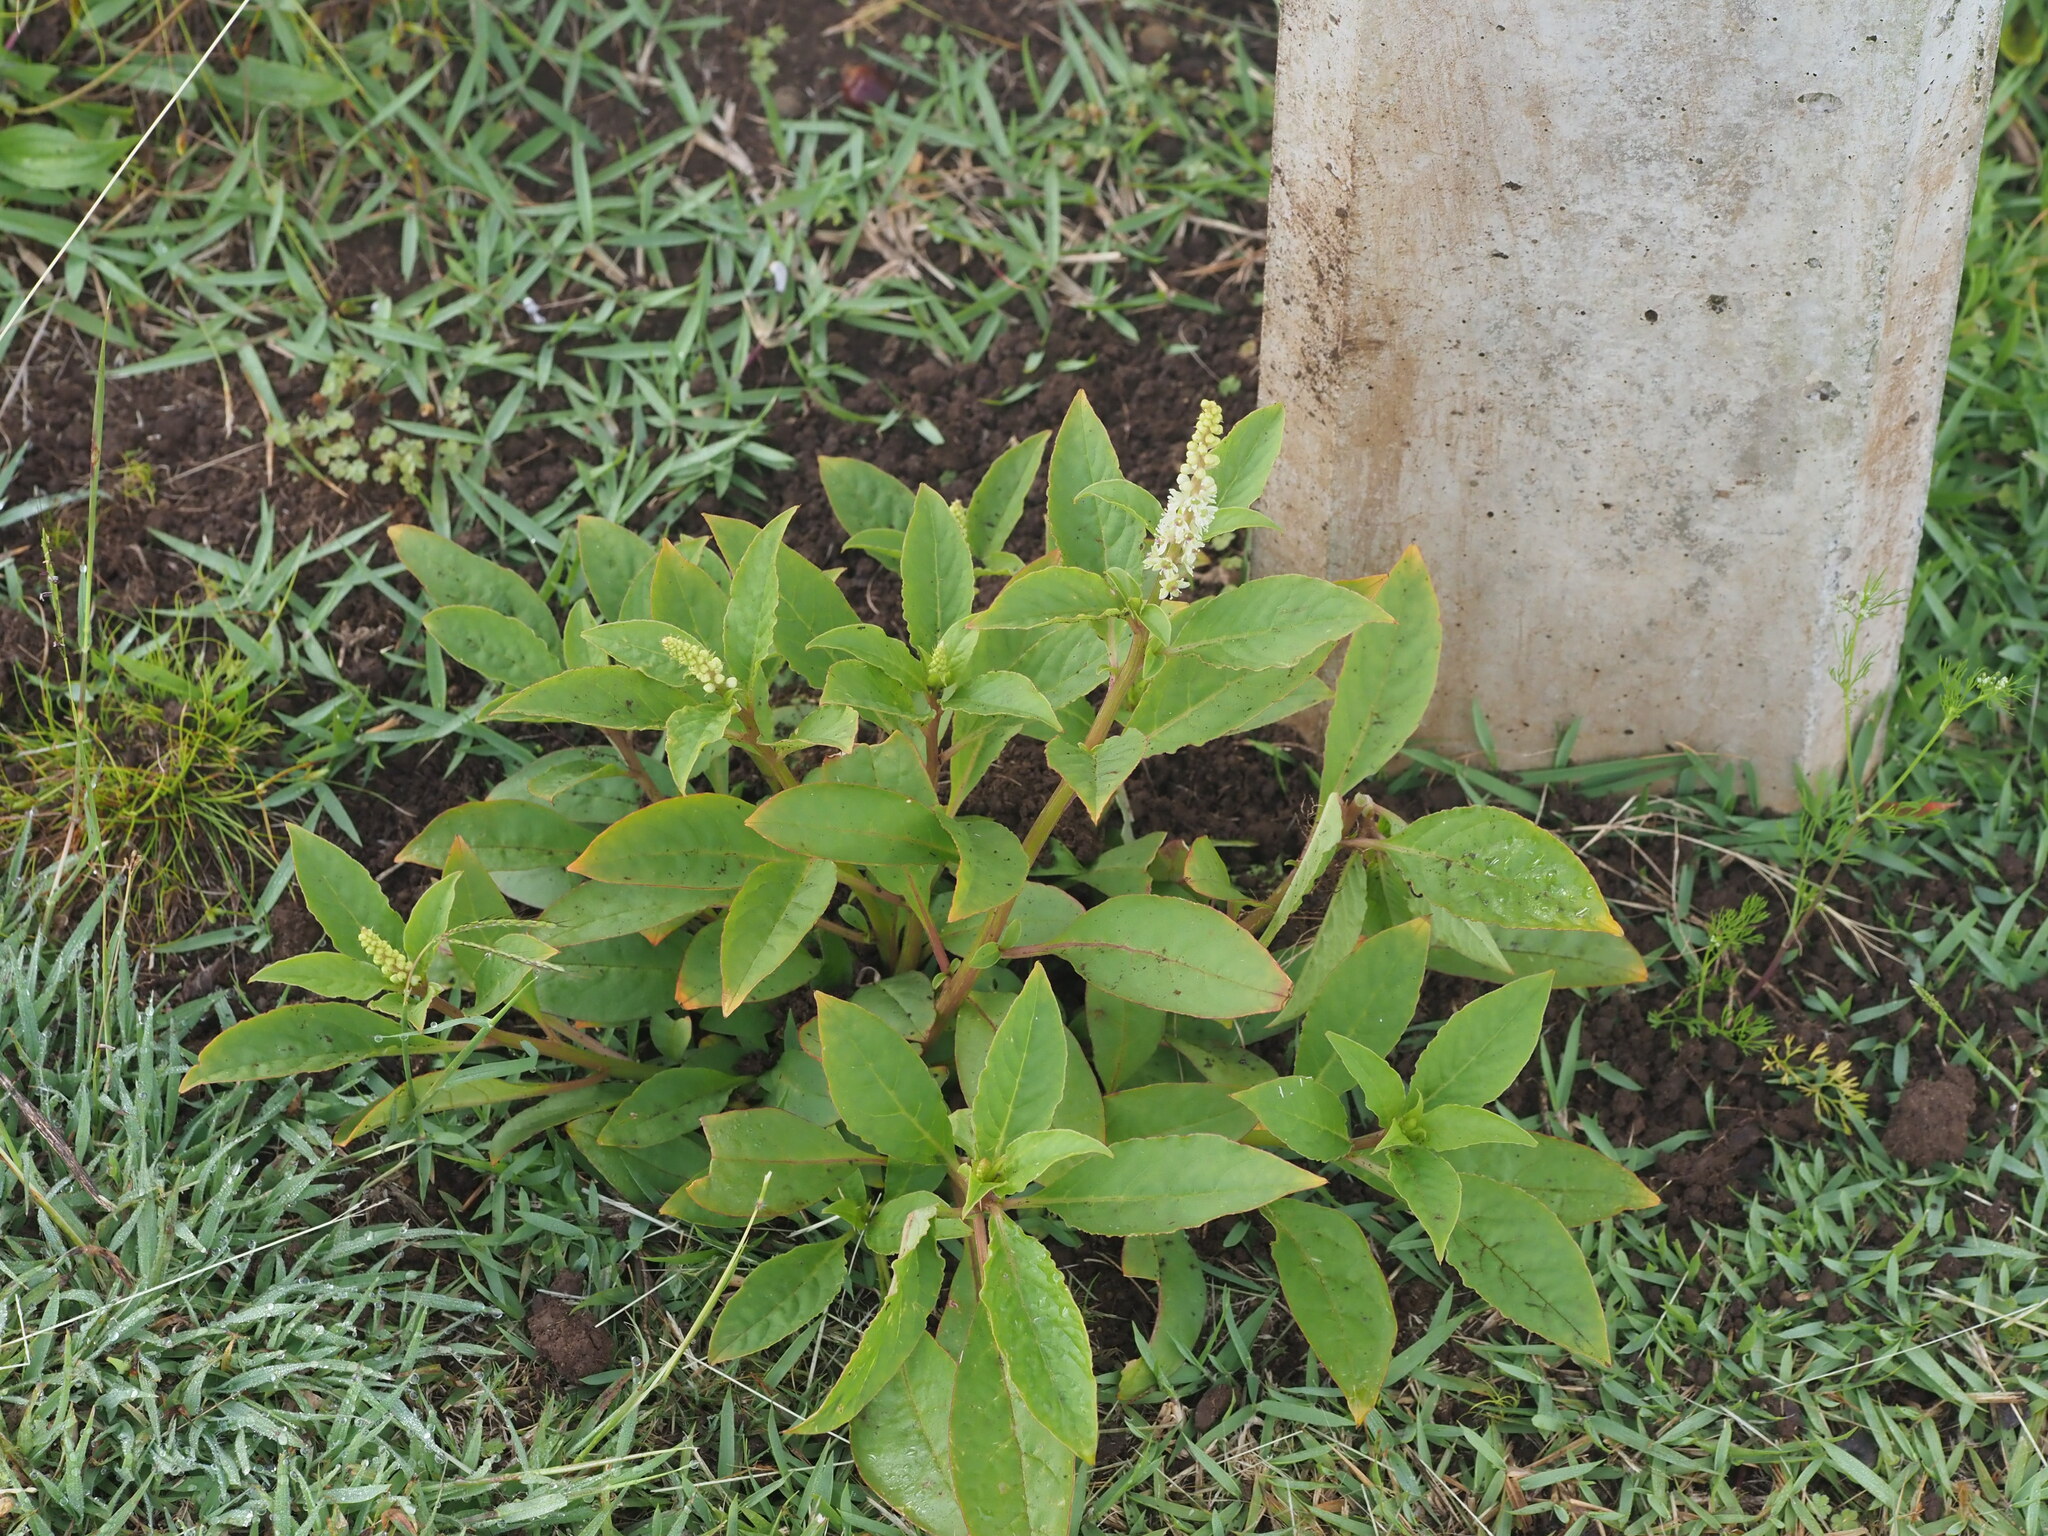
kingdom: Plantae
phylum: Tracheophyta
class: Magnoliopsida
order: Caryophyllales
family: Phytolaccaceae
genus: Phytolacca
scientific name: Phytolacca icosandra
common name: Button pokeweed
